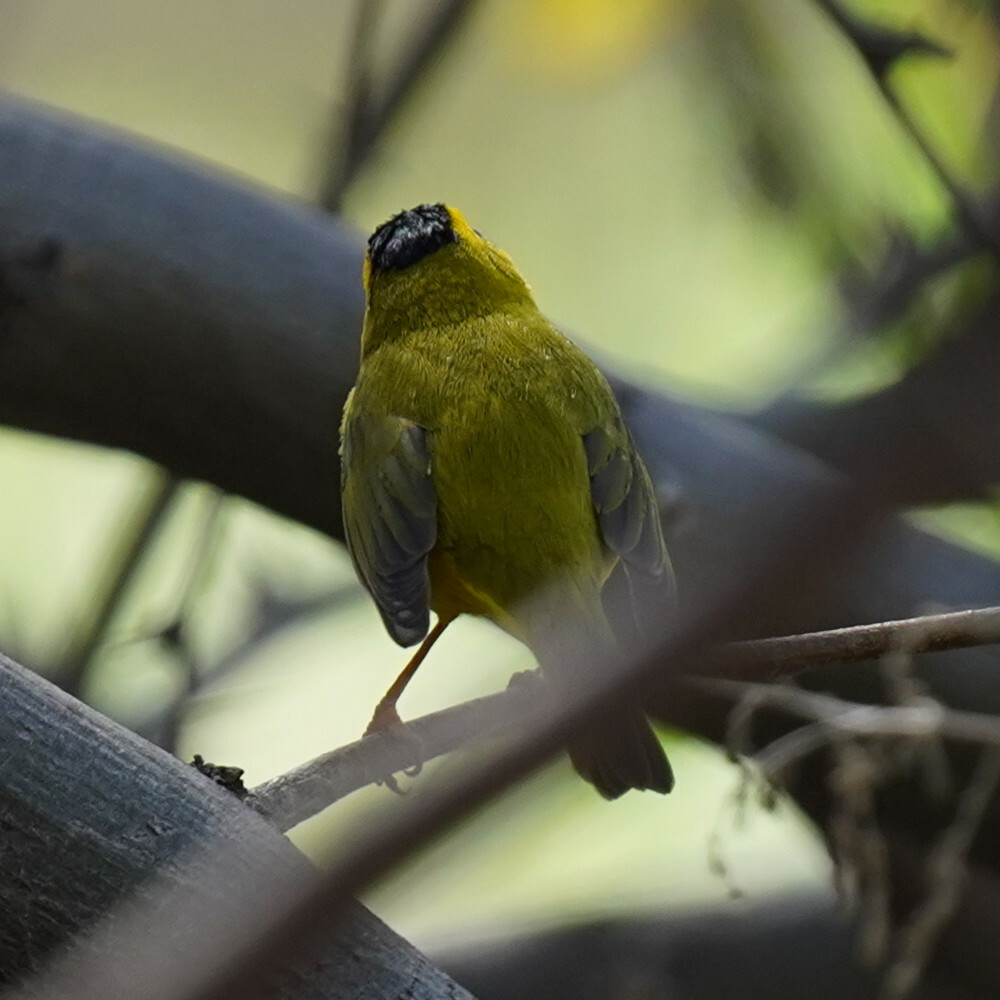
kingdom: Animalia
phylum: Chordata
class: Aves
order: Passeriformes
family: Parulidae
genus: Cardellina
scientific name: Cardellina pusilla
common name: Wilson's warbler
